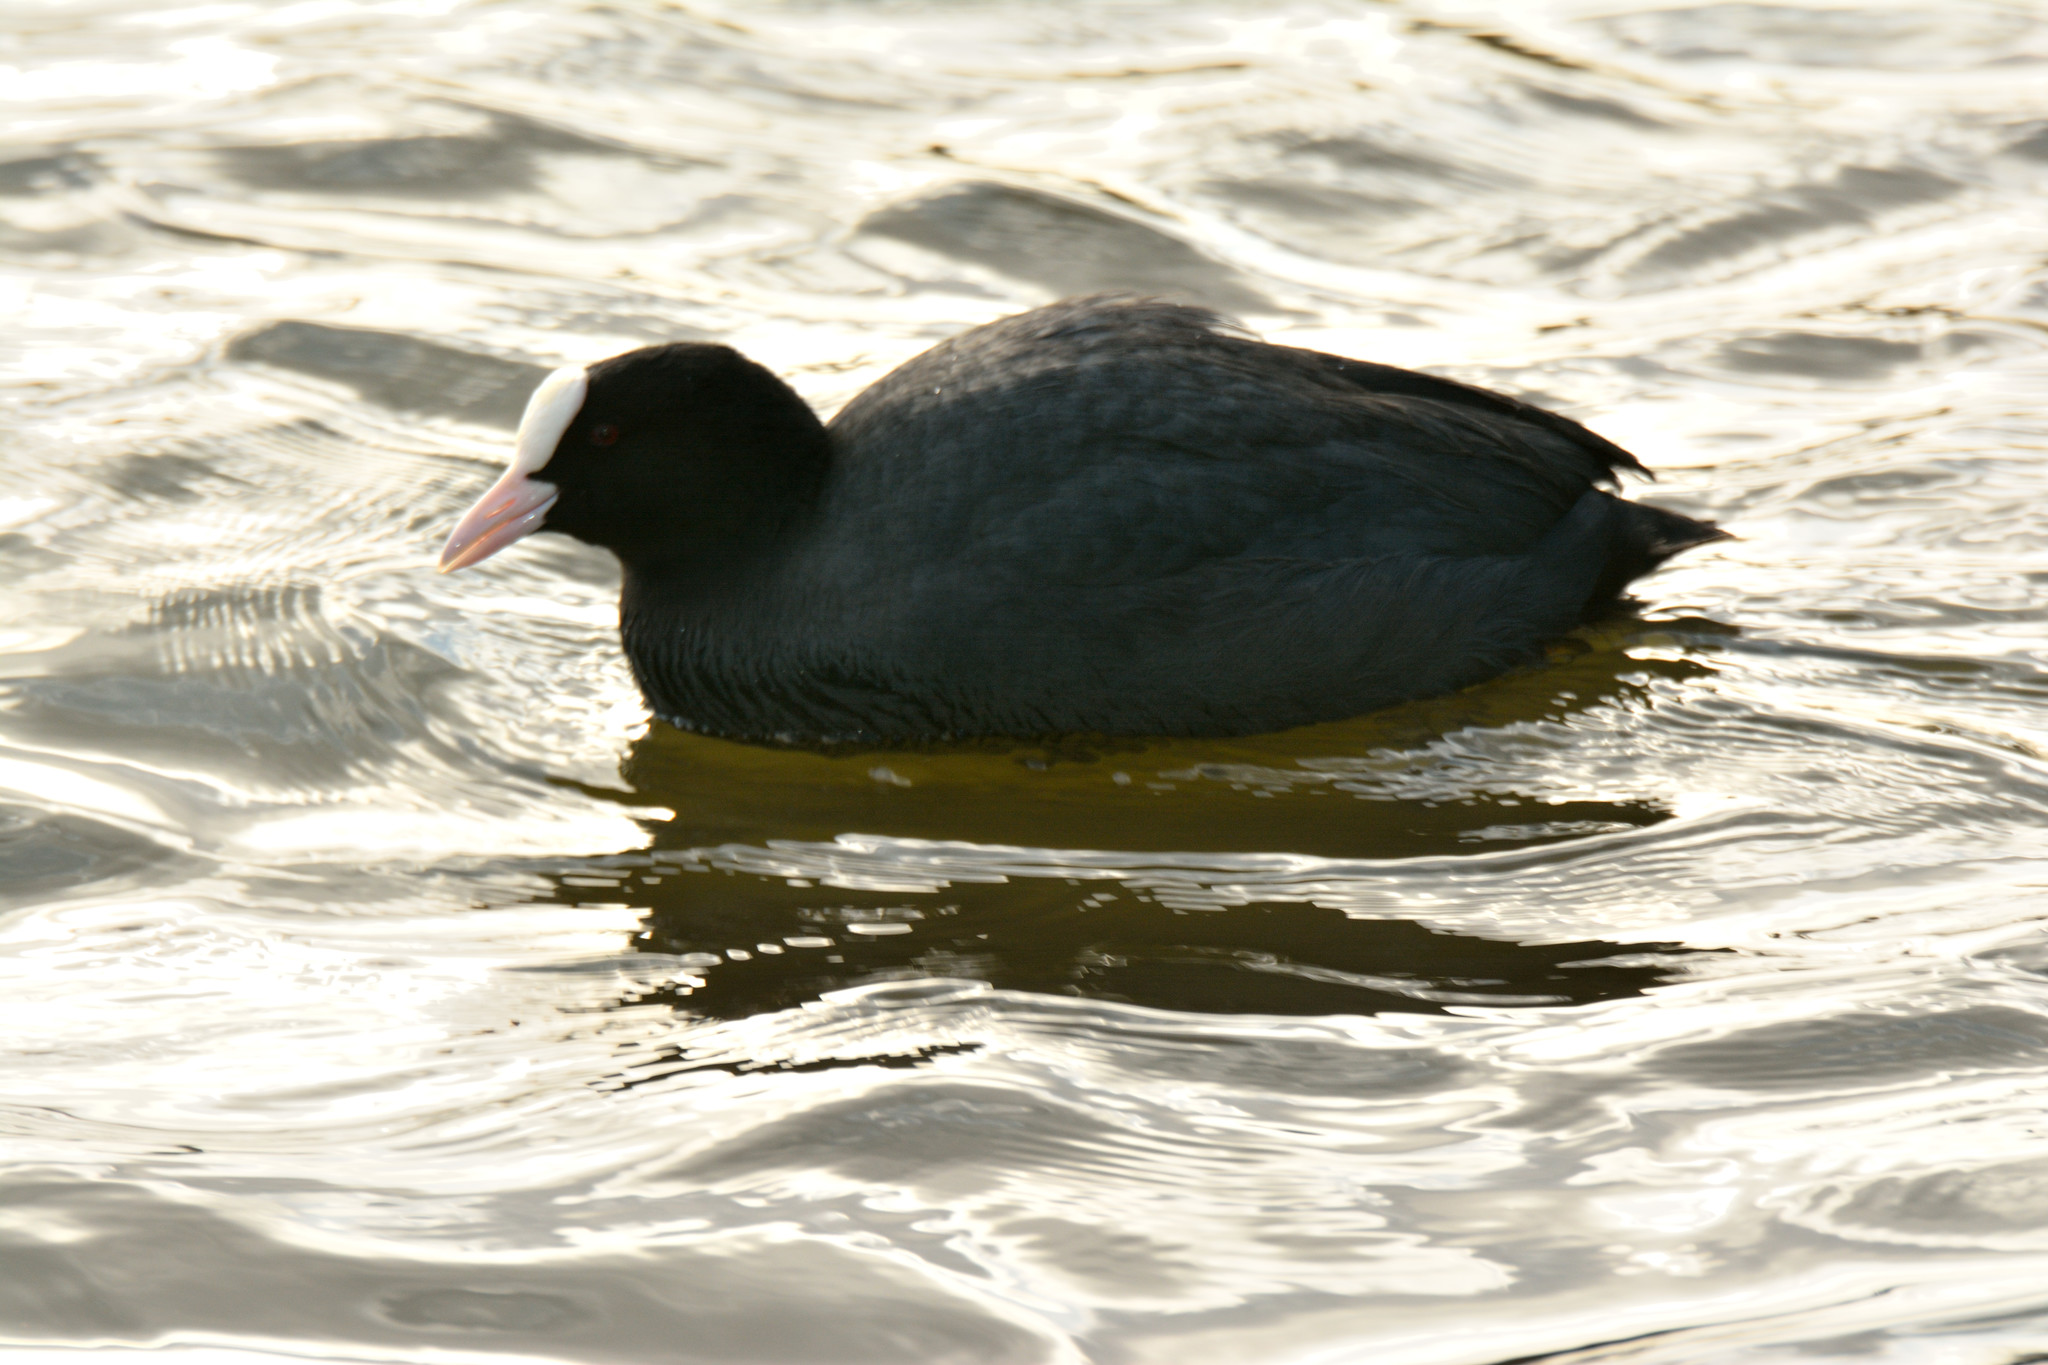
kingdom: Animalia
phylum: Chordata
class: Aves
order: Gruiformes
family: Rallidae
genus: Fulica
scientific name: Fulica atra
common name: Eurasian coot
